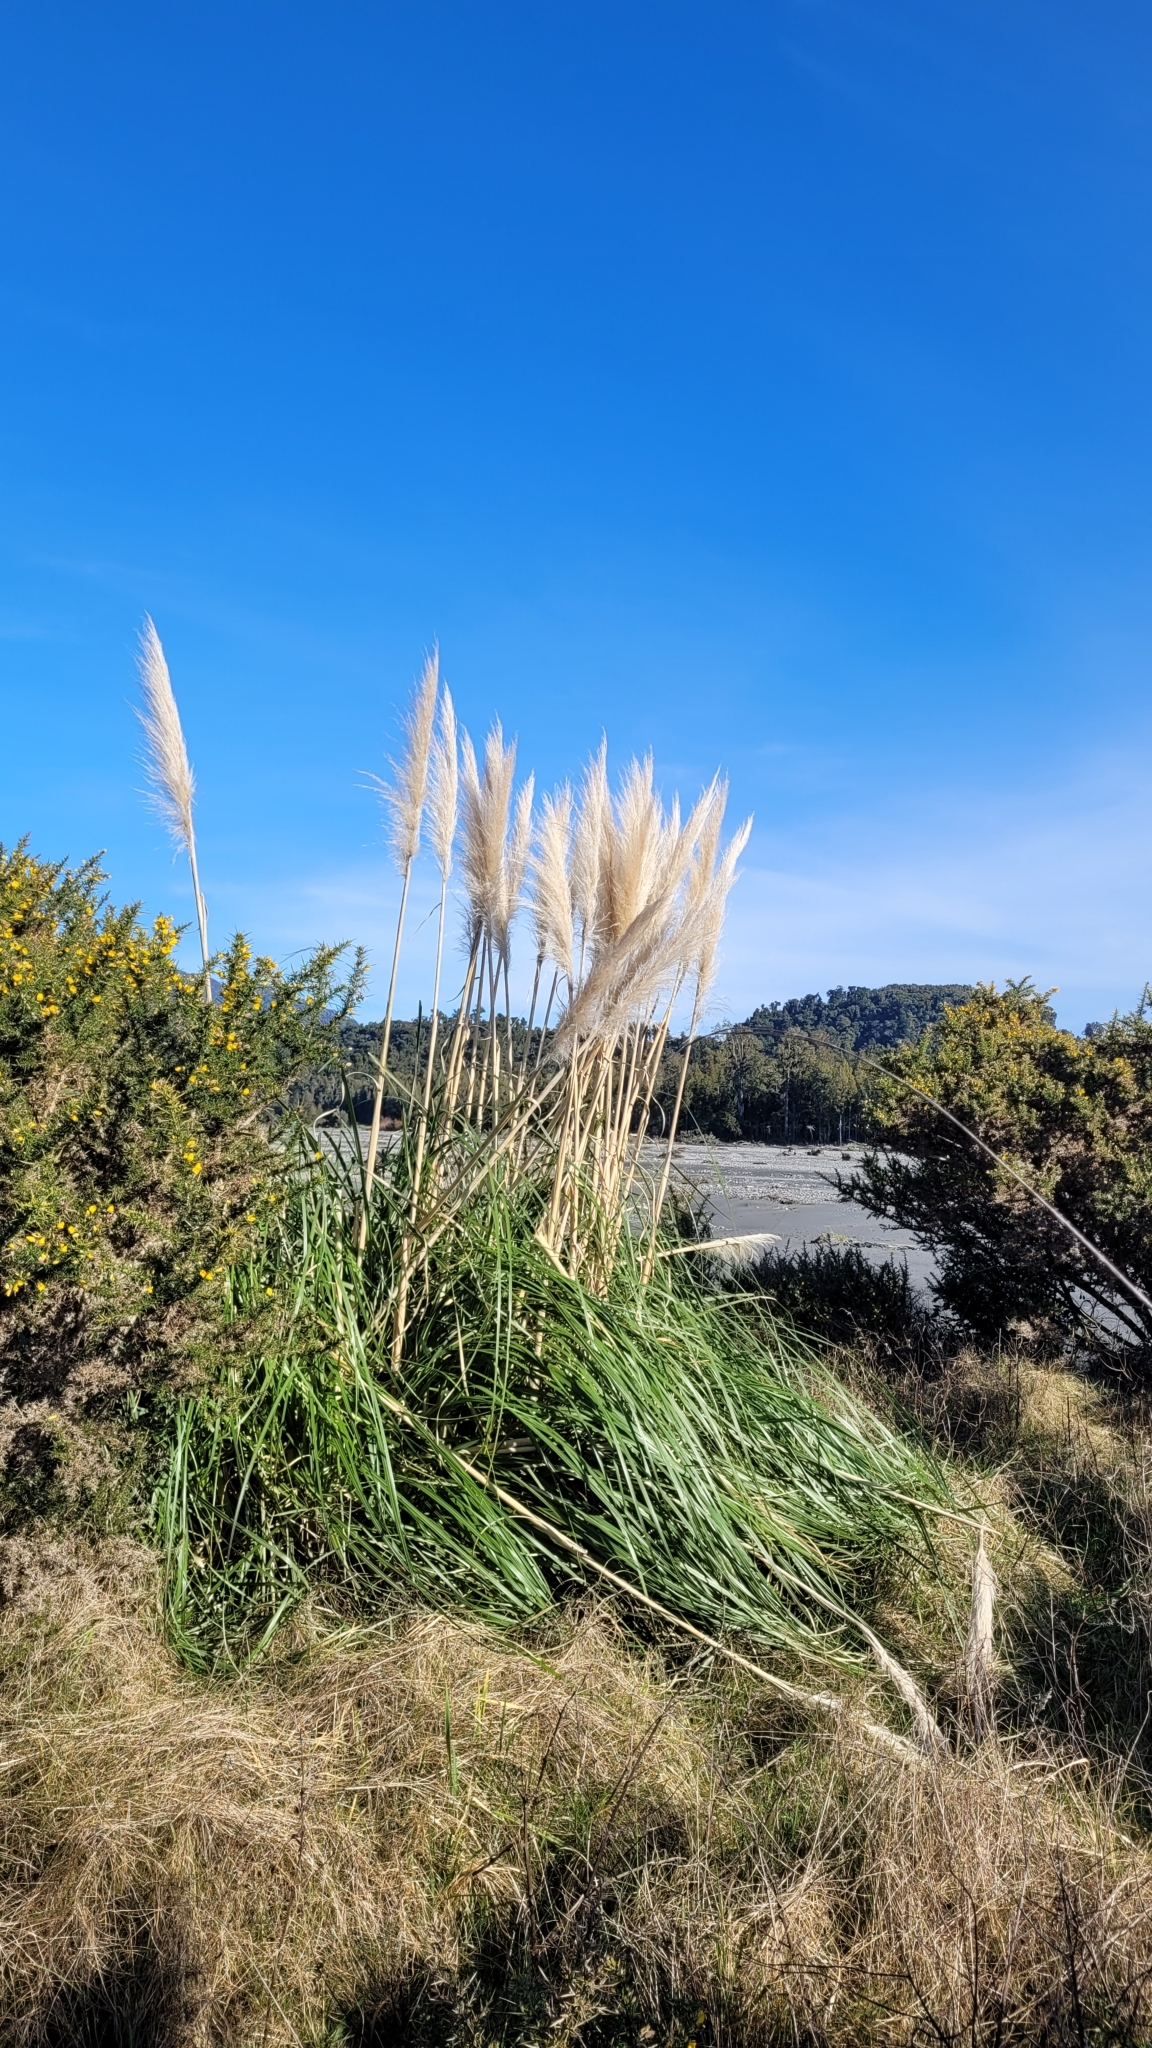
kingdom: Plantae
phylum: Tracheophyta
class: Liliopsida
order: Poales
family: Poaceae
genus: Cortaderia
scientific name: Cortaderia jubata
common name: Purple pampas grass
